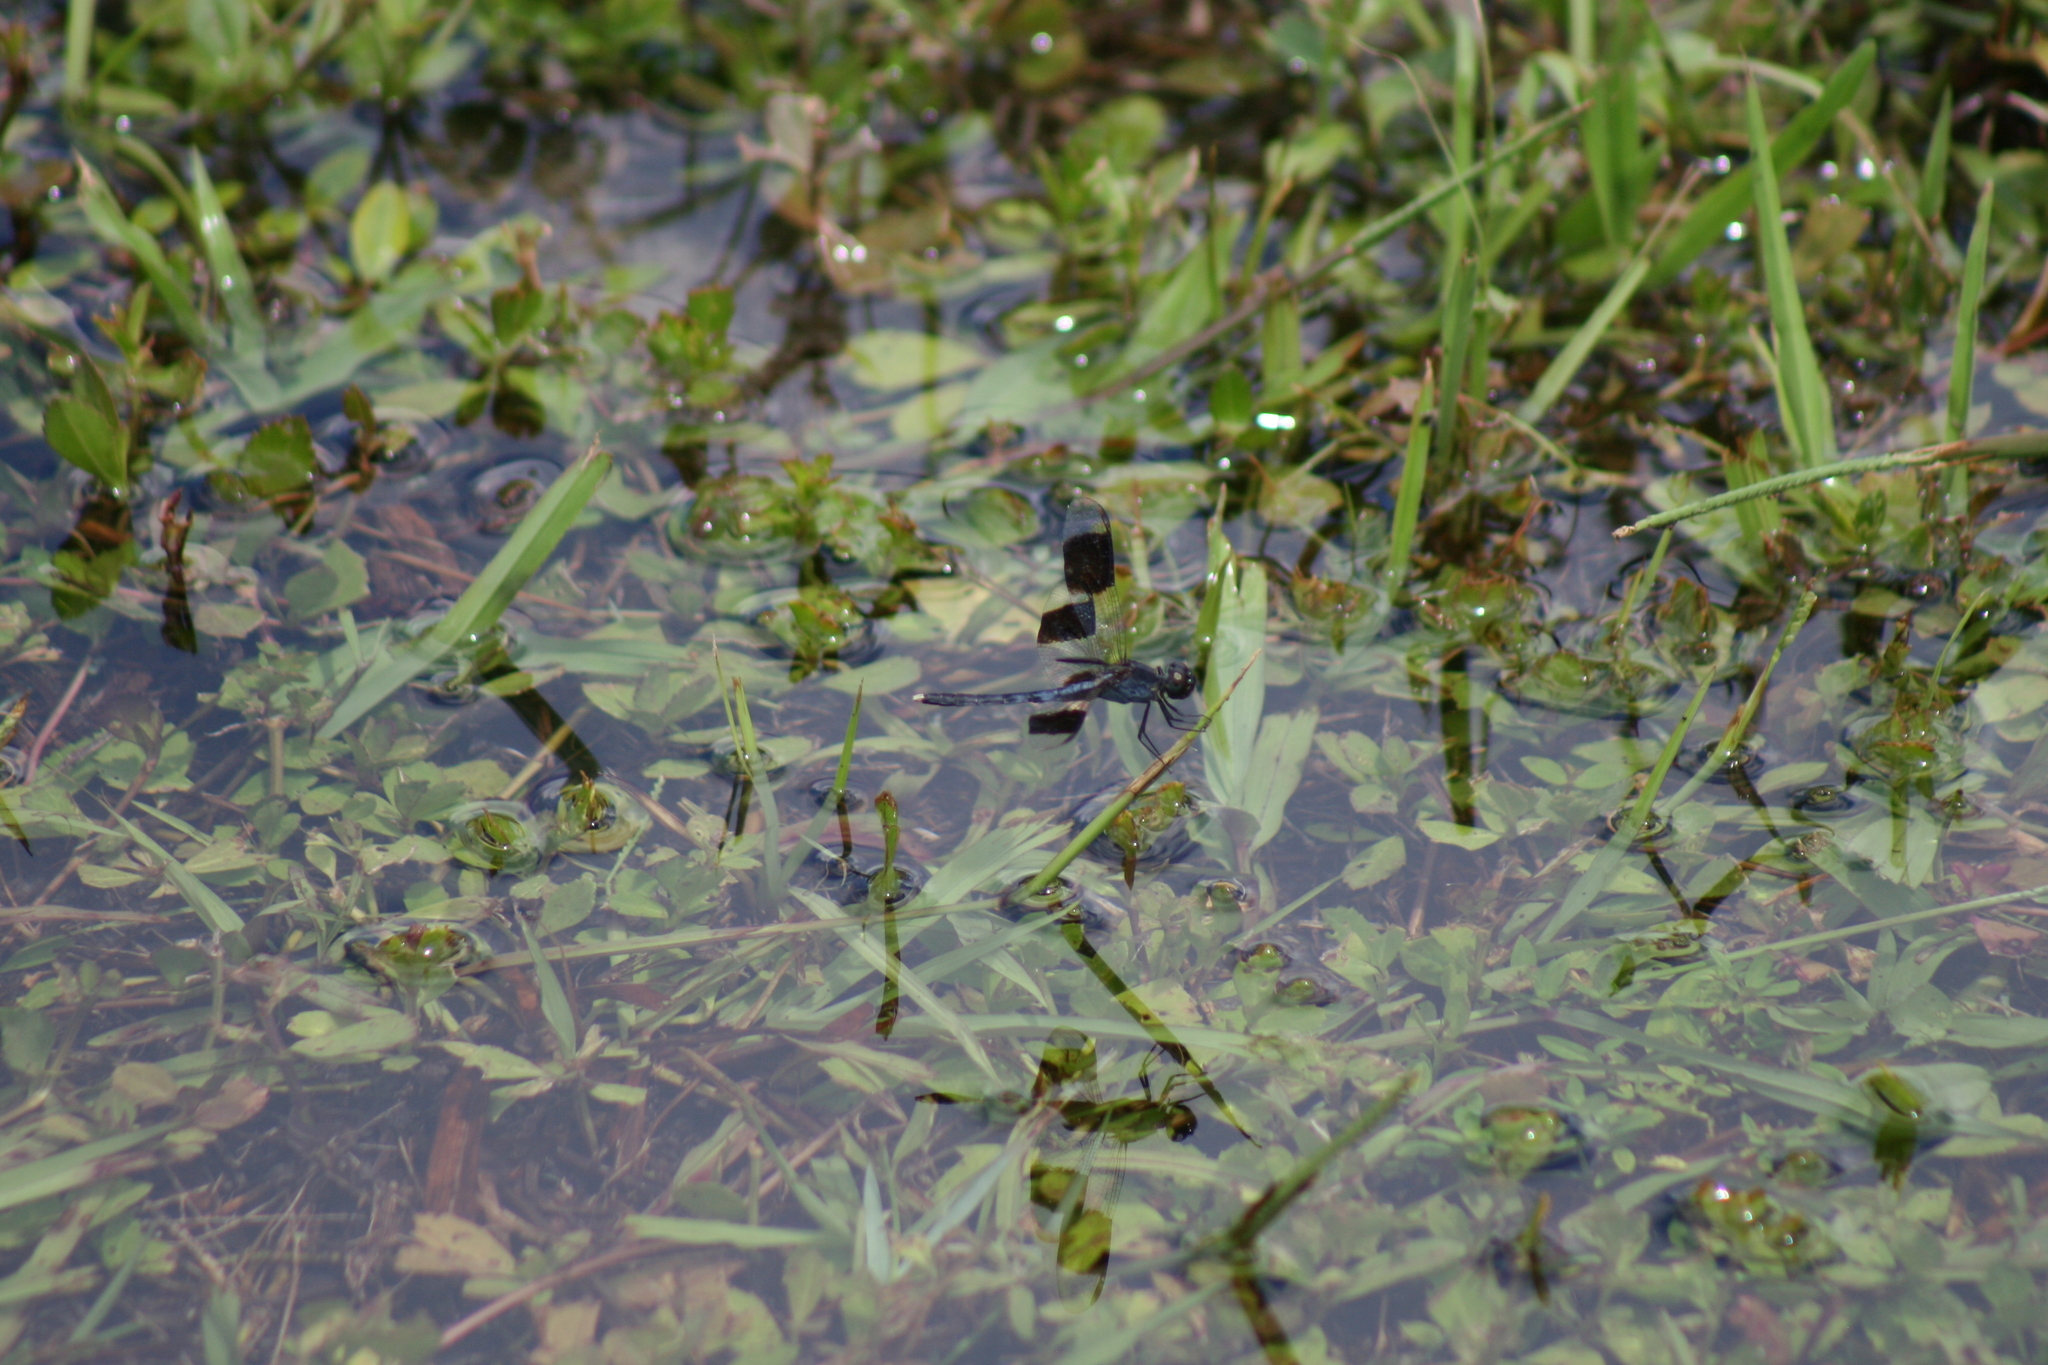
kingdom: Animalia
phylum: Arthropoda
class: Insecta
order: Odonata
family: Libellulidae
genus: Erythrodiplax
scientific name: Erythrodiplax umbrata
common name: Band-winged dragonlet
